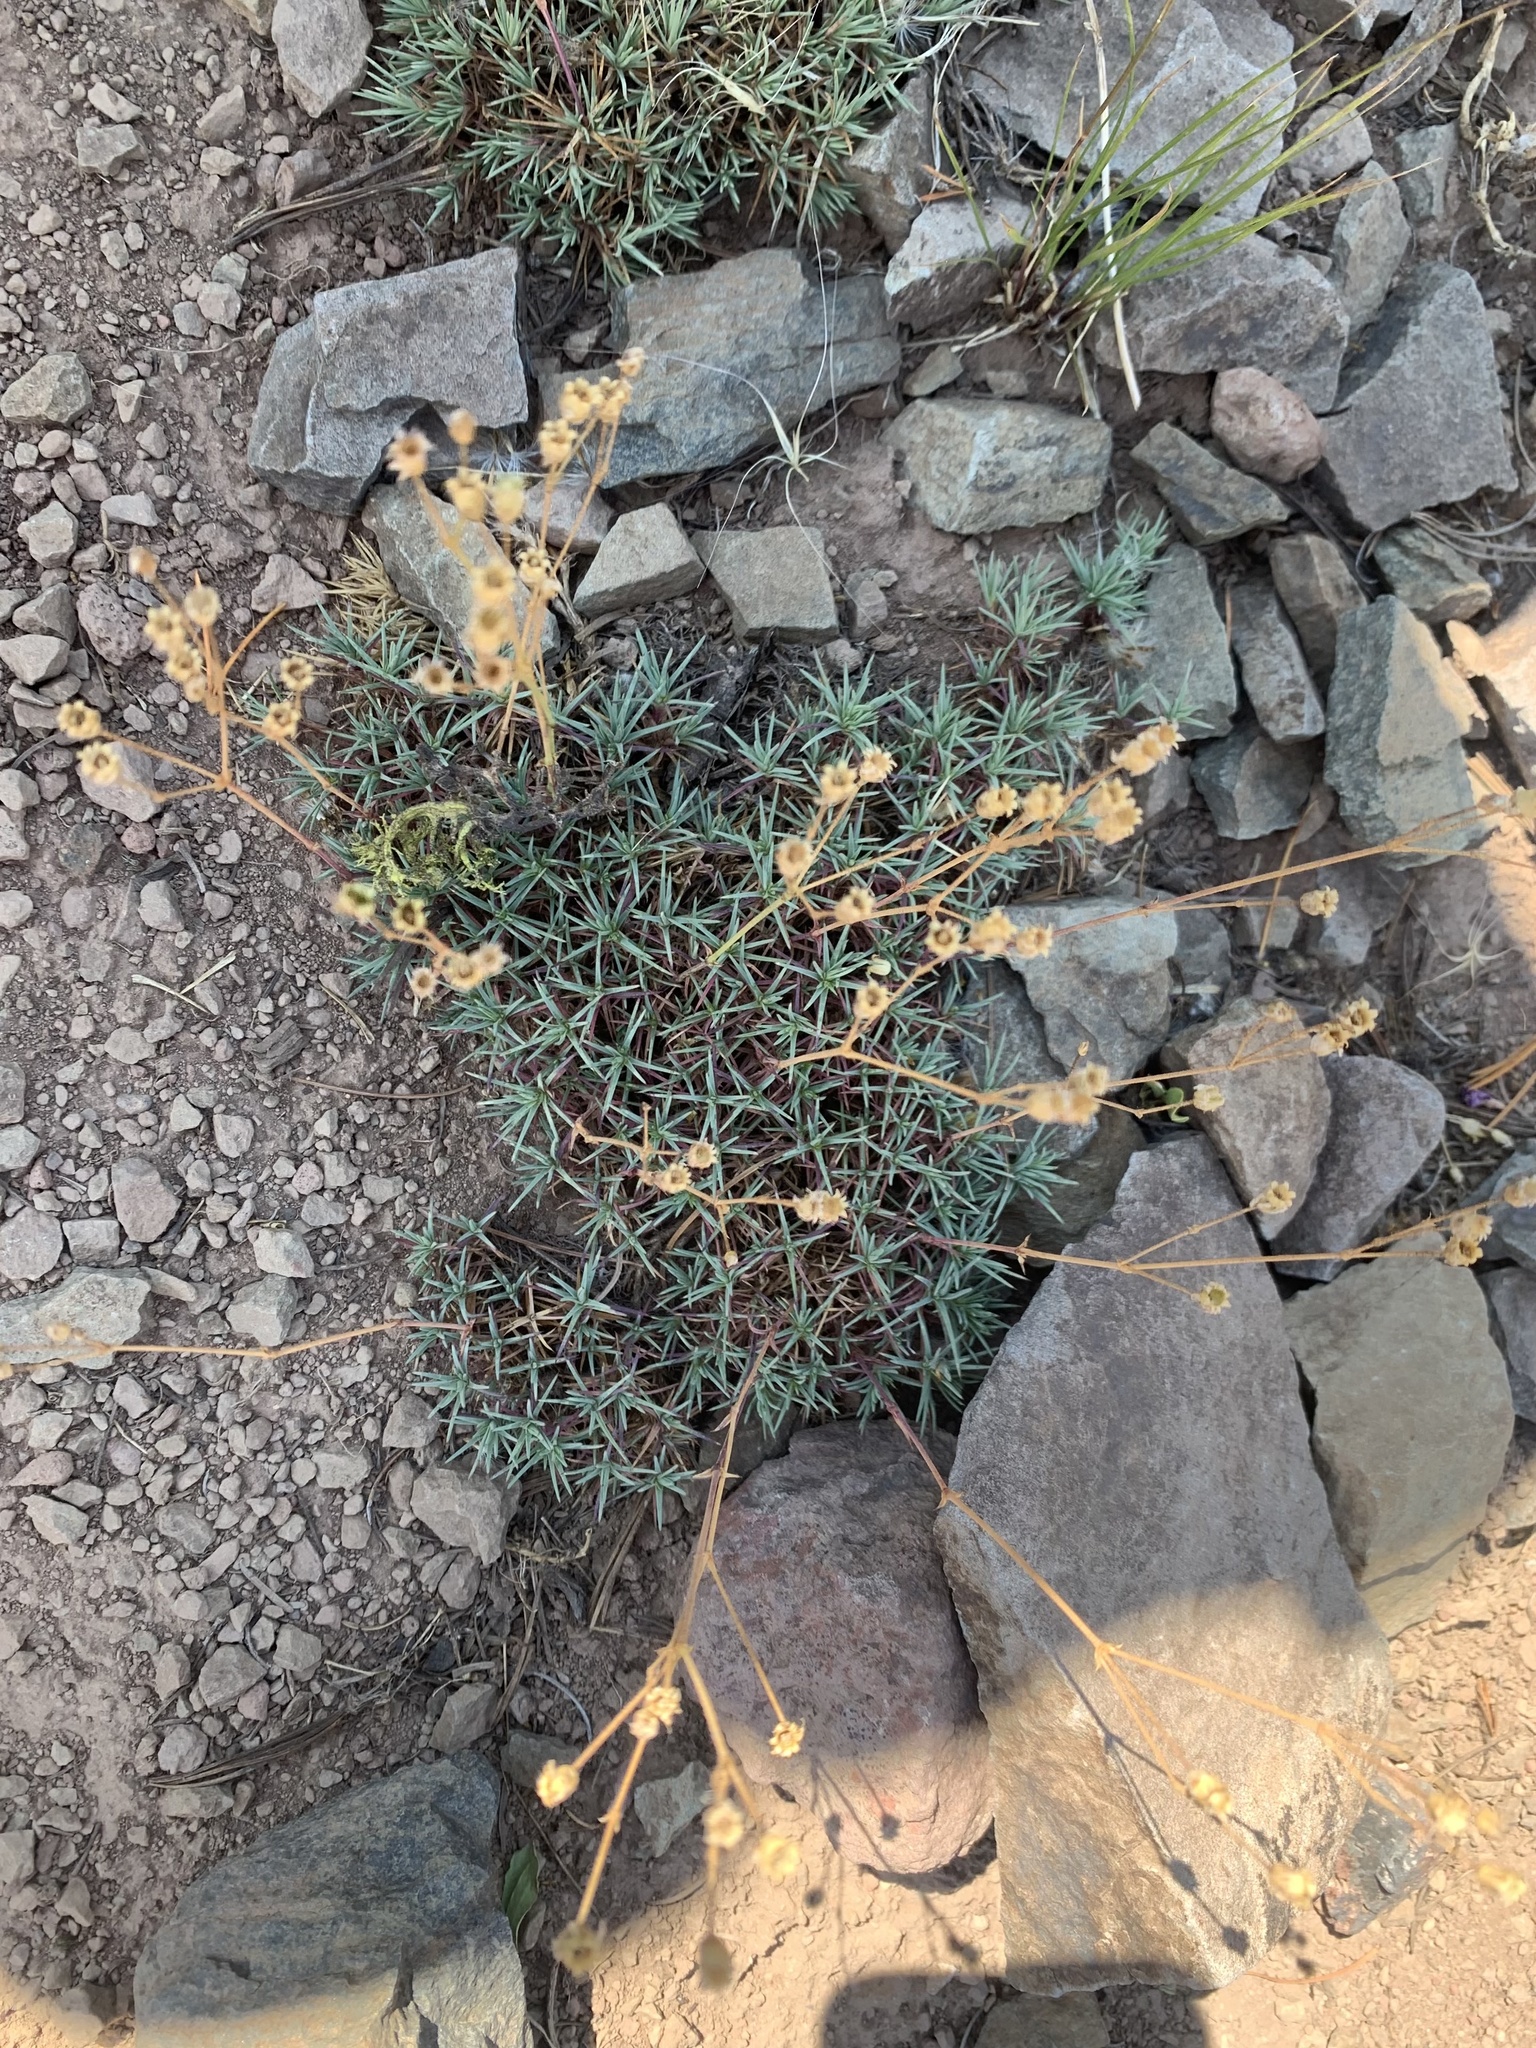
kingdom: Plantae
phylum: Tracheophyta
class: Magnoliopsida
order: Caryophyllales
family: Caryophyllaceae
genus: Eremogone
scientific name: Eremogone capillaris
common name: Slender mountain sandwort
